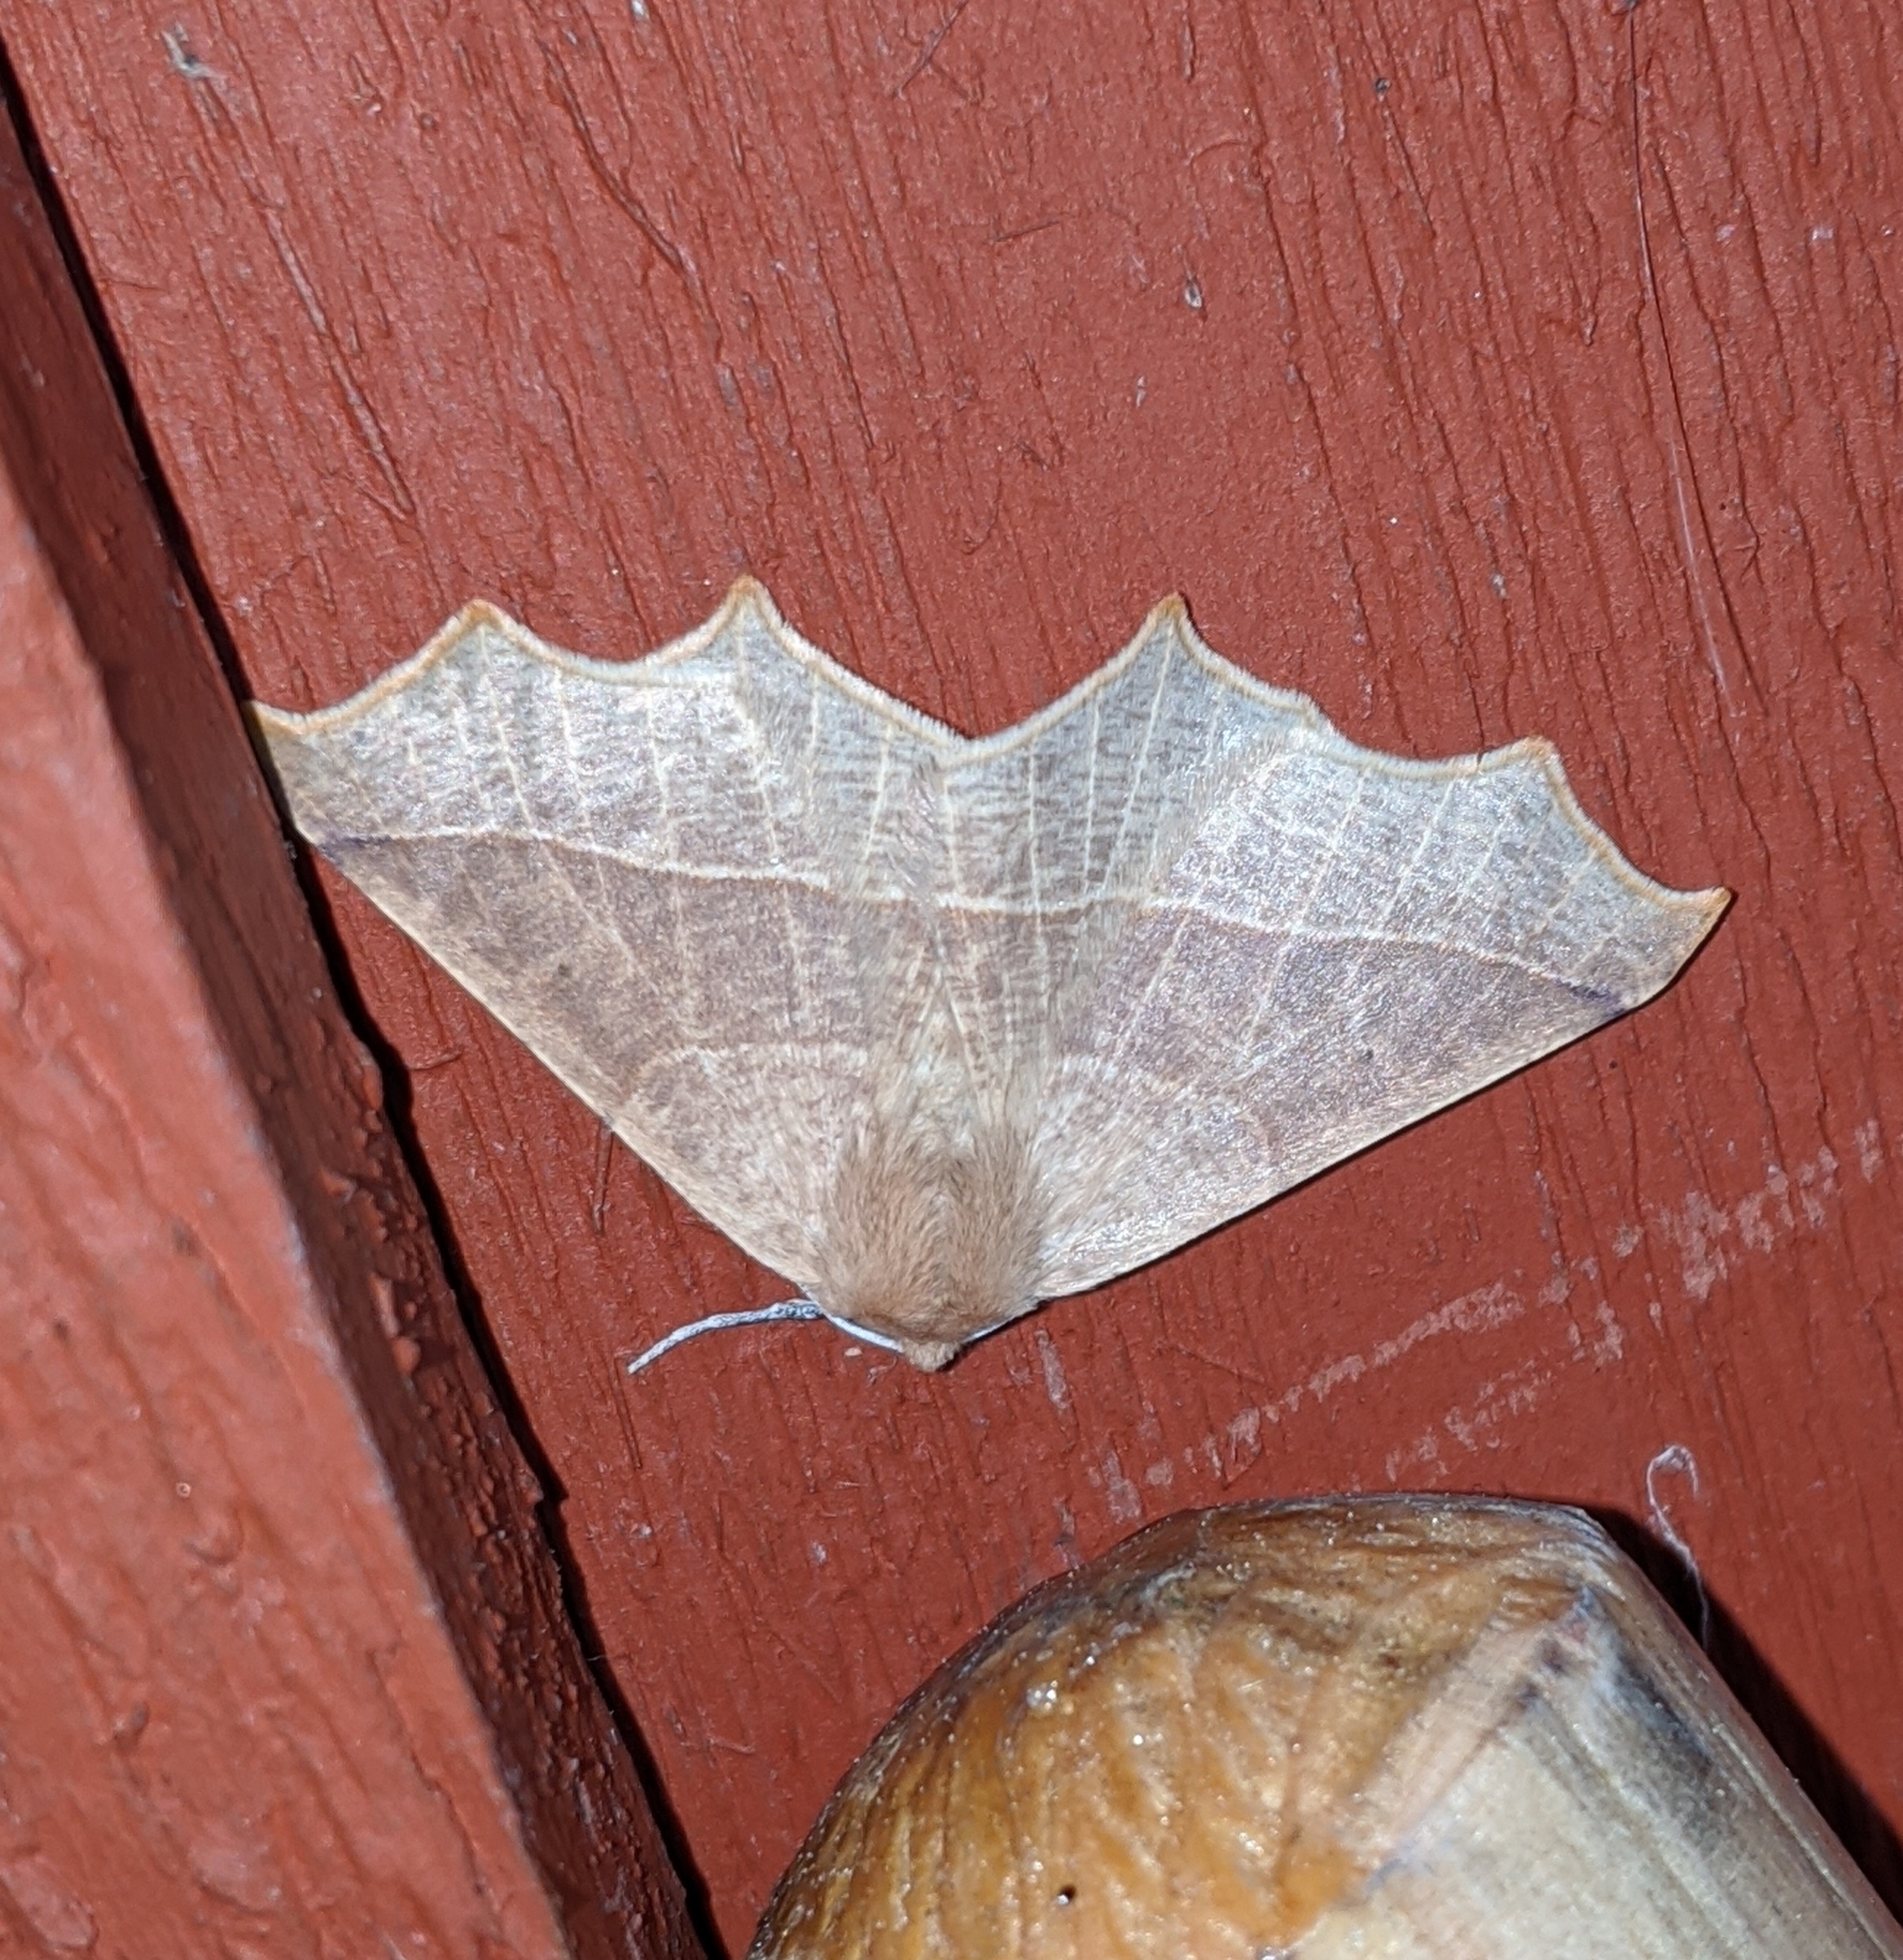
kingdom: Animalia
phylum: Arthropoda
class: Insecta
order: Lepidoptera
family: Geometridae
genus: Tetracis
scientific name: Tetracis cervinaria
